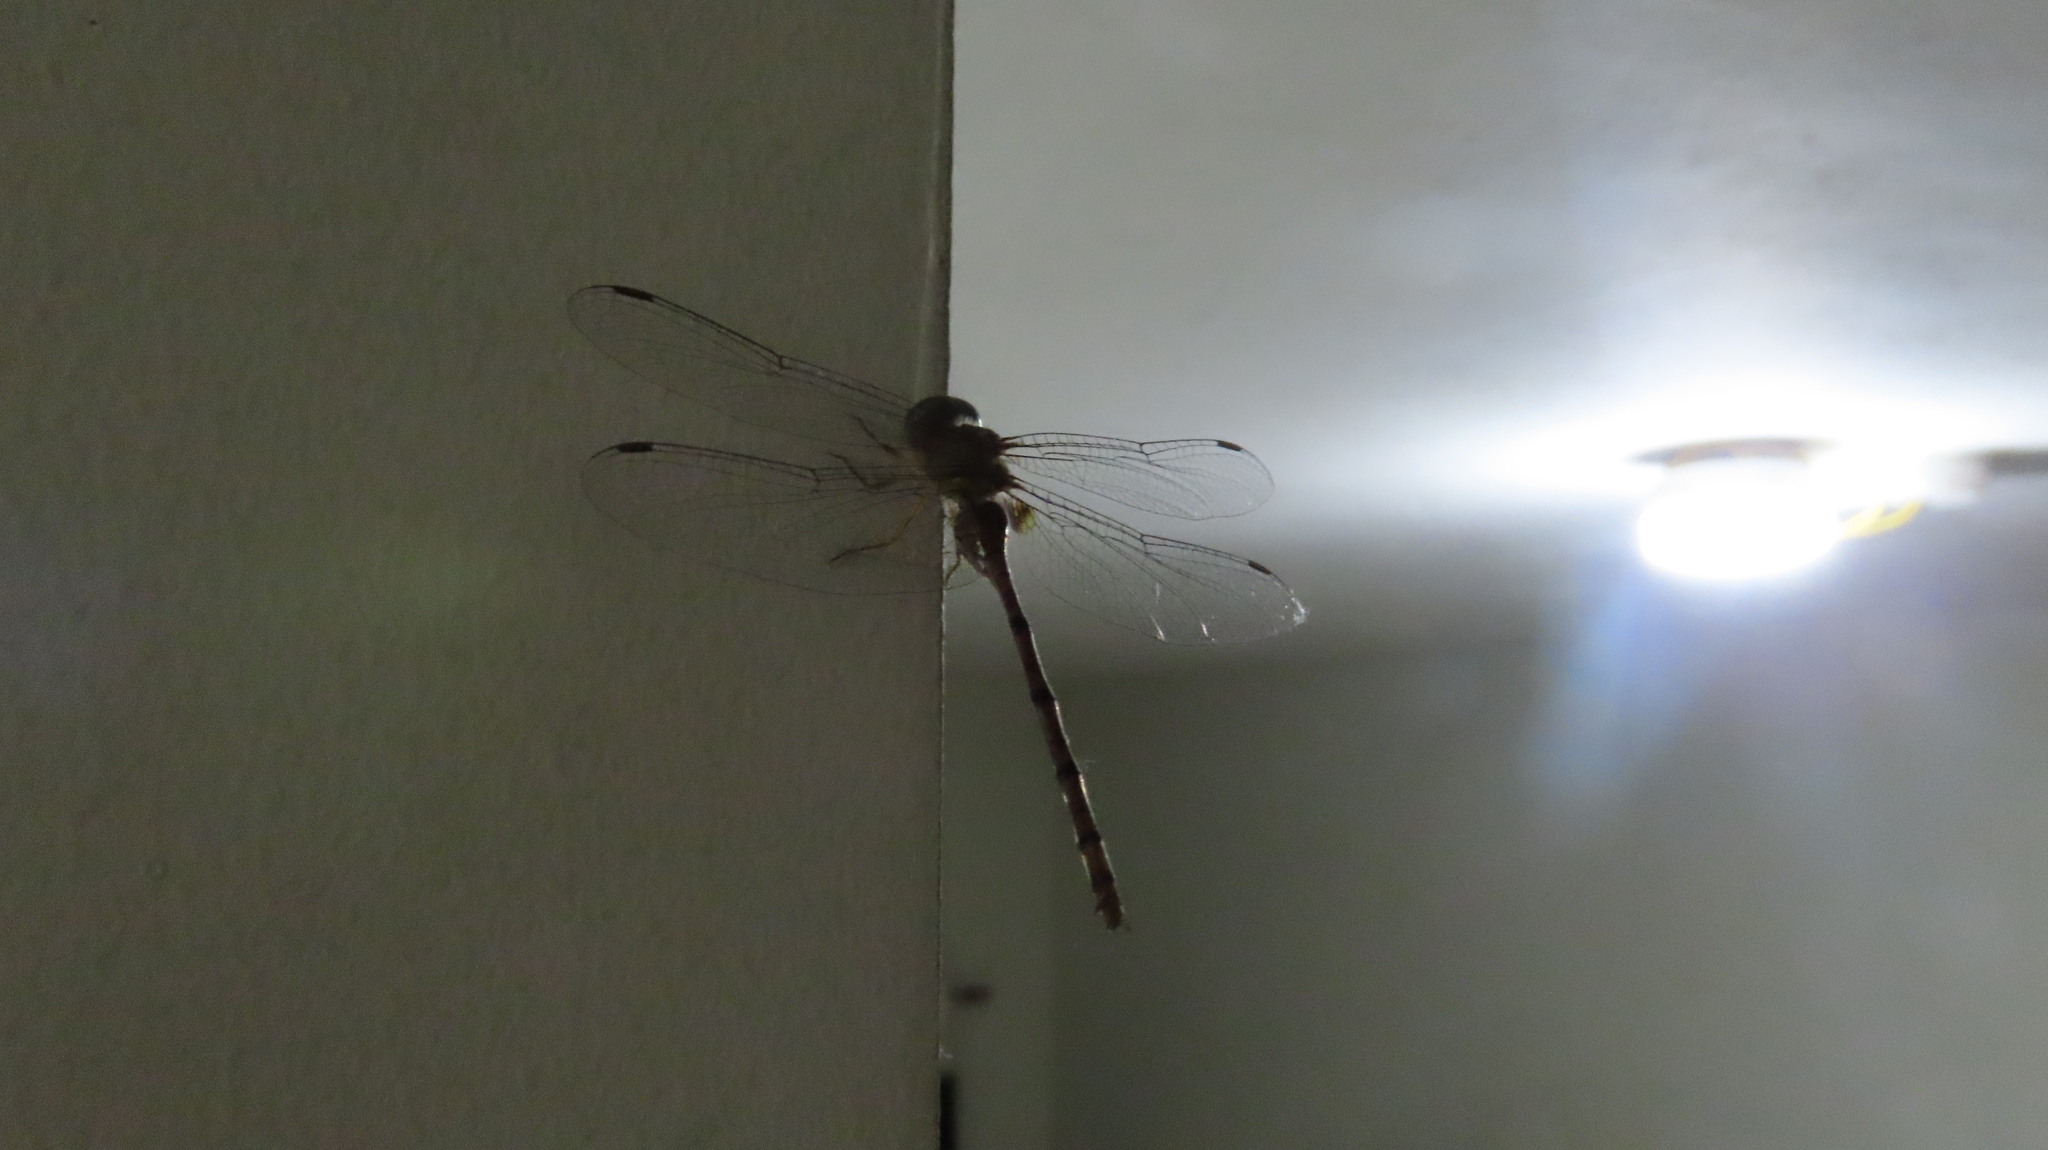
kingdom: Animalia
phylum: Arthropoda
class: Insecta
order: Odonata
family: Libellulidae
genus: Zyxomma
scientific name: Zyxomma petiolatum
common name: Dingy dusk-darter
